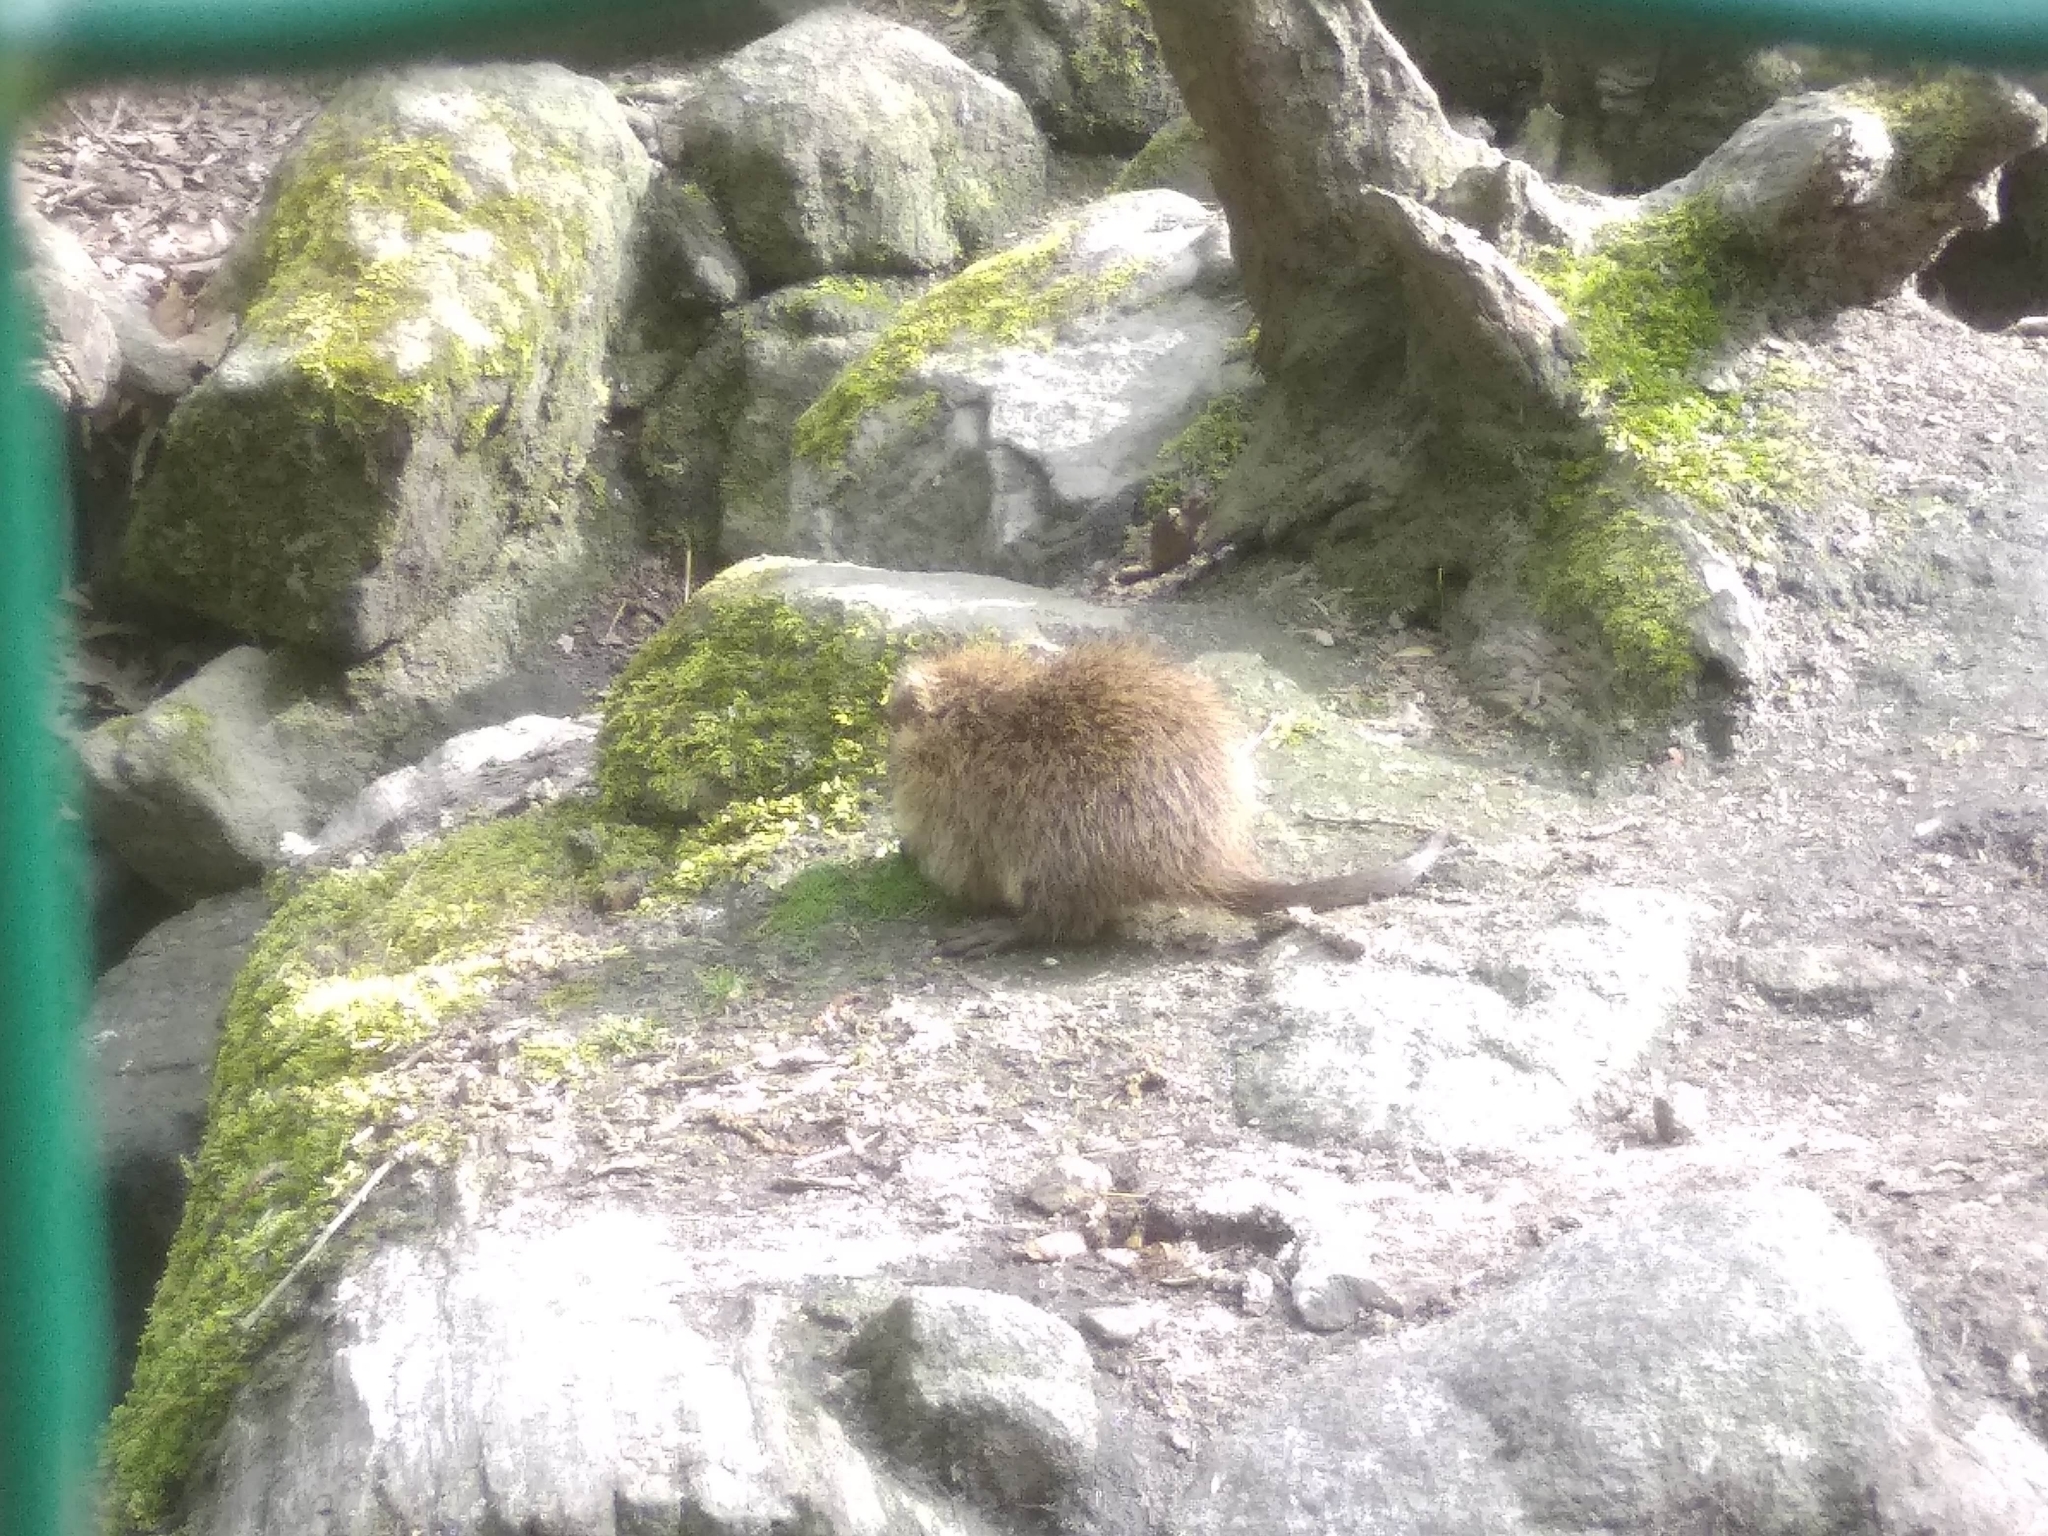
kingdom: Animalia
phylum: Chordata
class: Mammalia
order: Rodentia
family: Myocastoridae
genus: Myocastor
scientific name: Myocastor coypus
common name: Coypu
